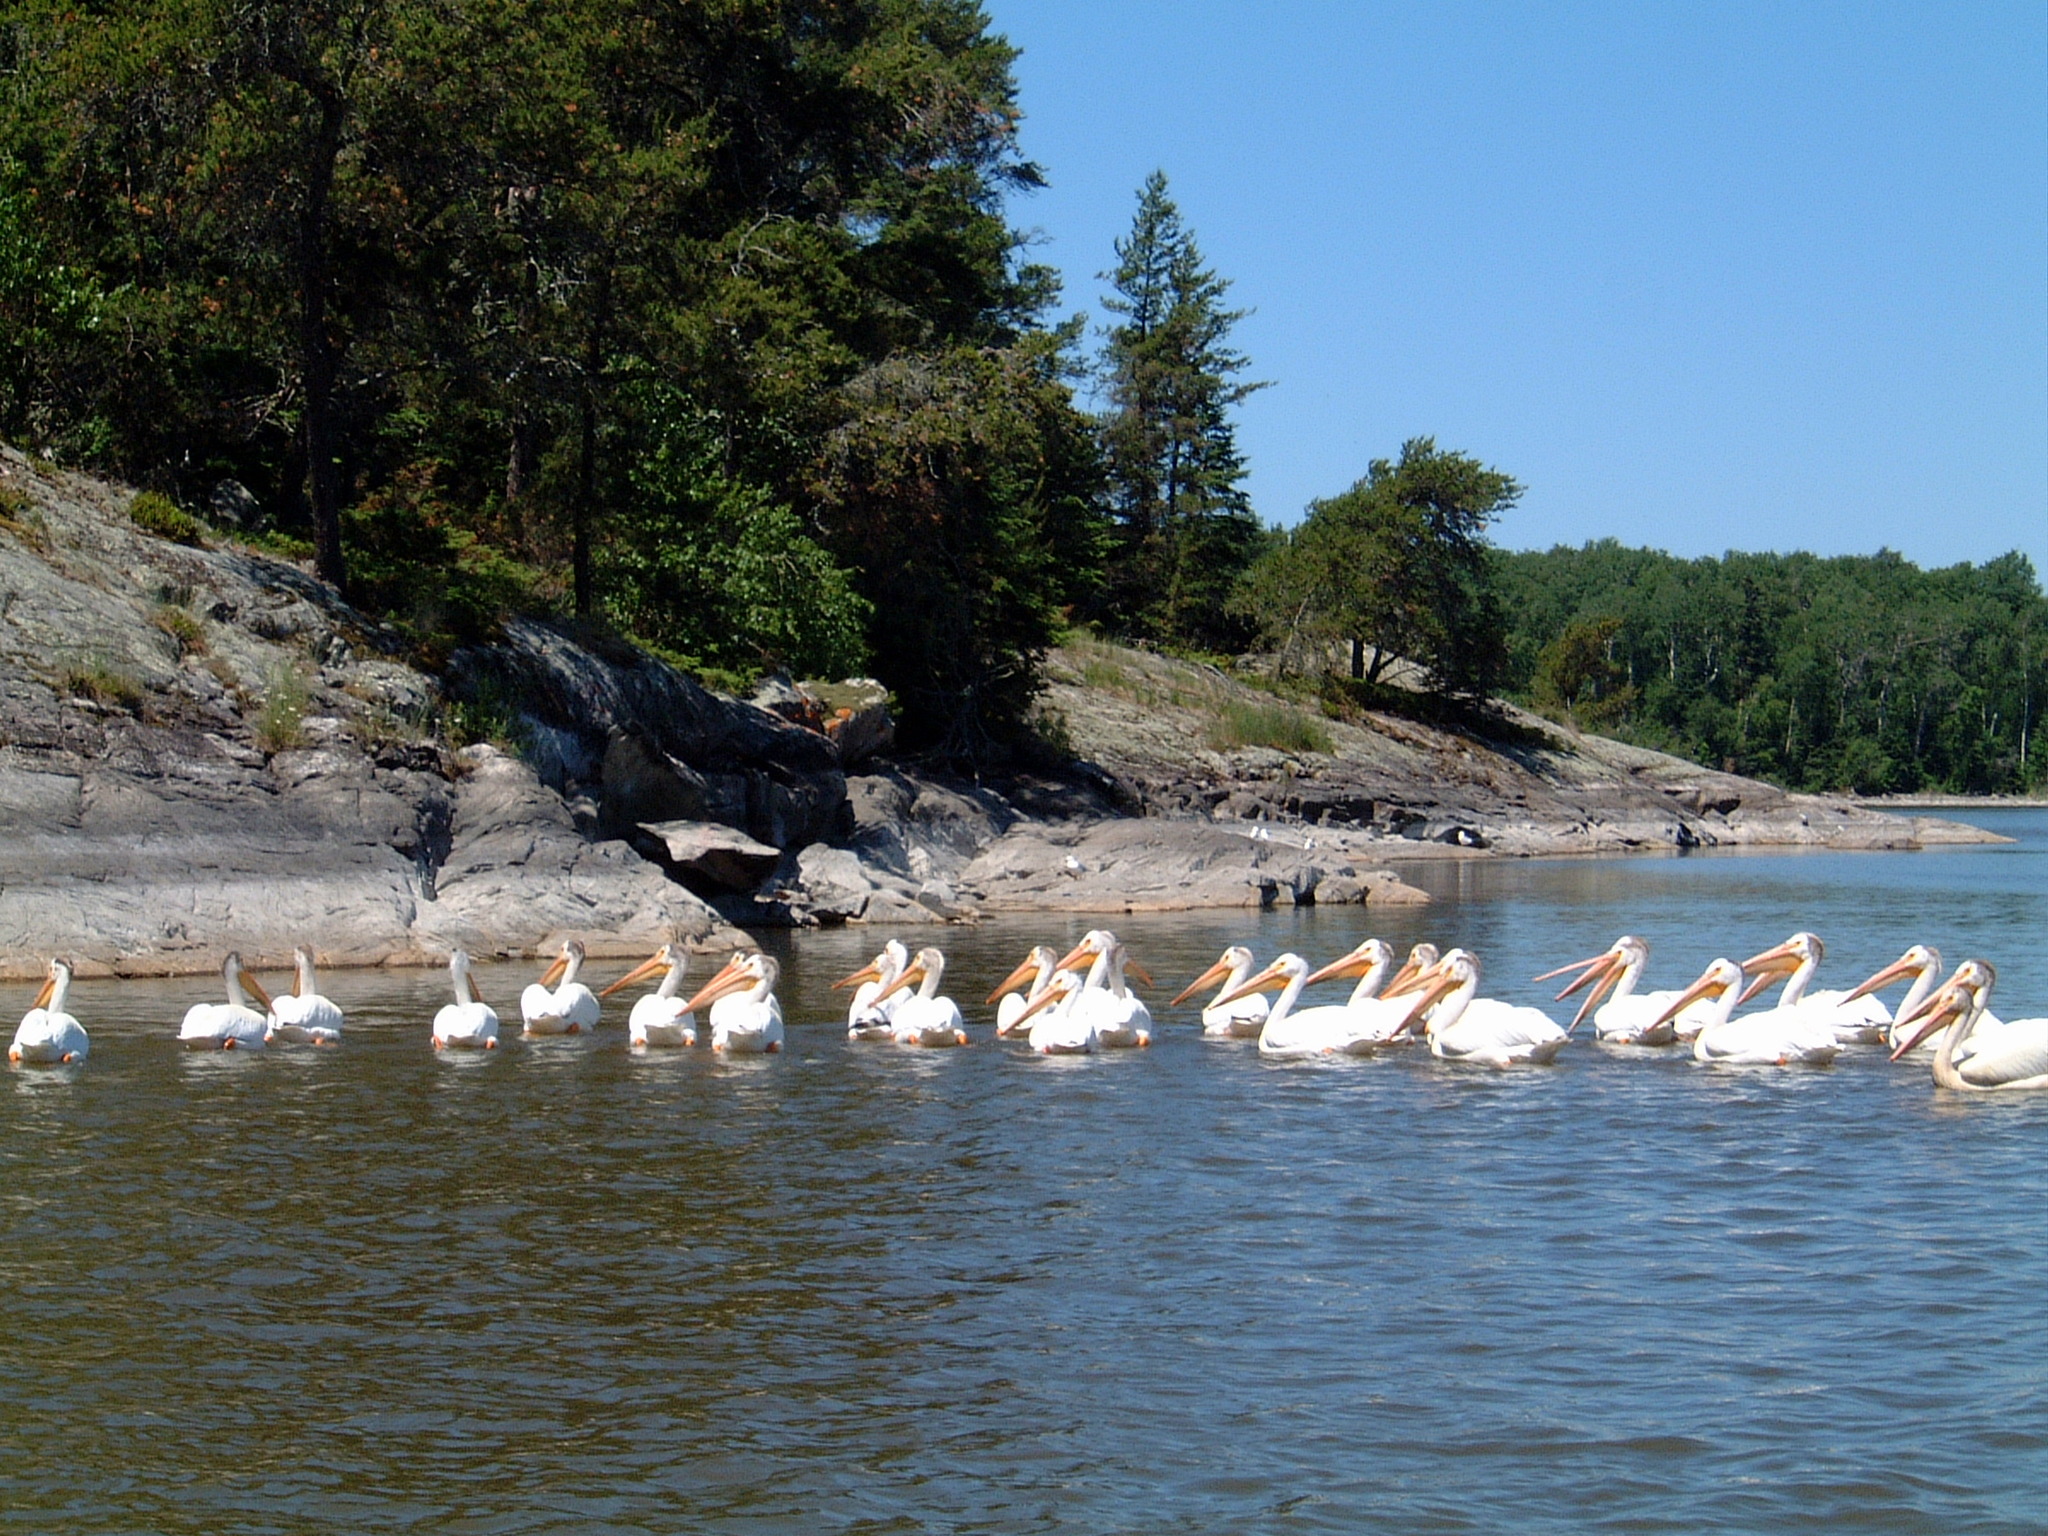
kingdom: Animalia
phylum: Chordata
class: Aves
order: Pelecaniformes
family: Pelecanidae
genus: Pelecanus
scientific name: Pelecanus erythrorhynchos
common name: American white pelican
